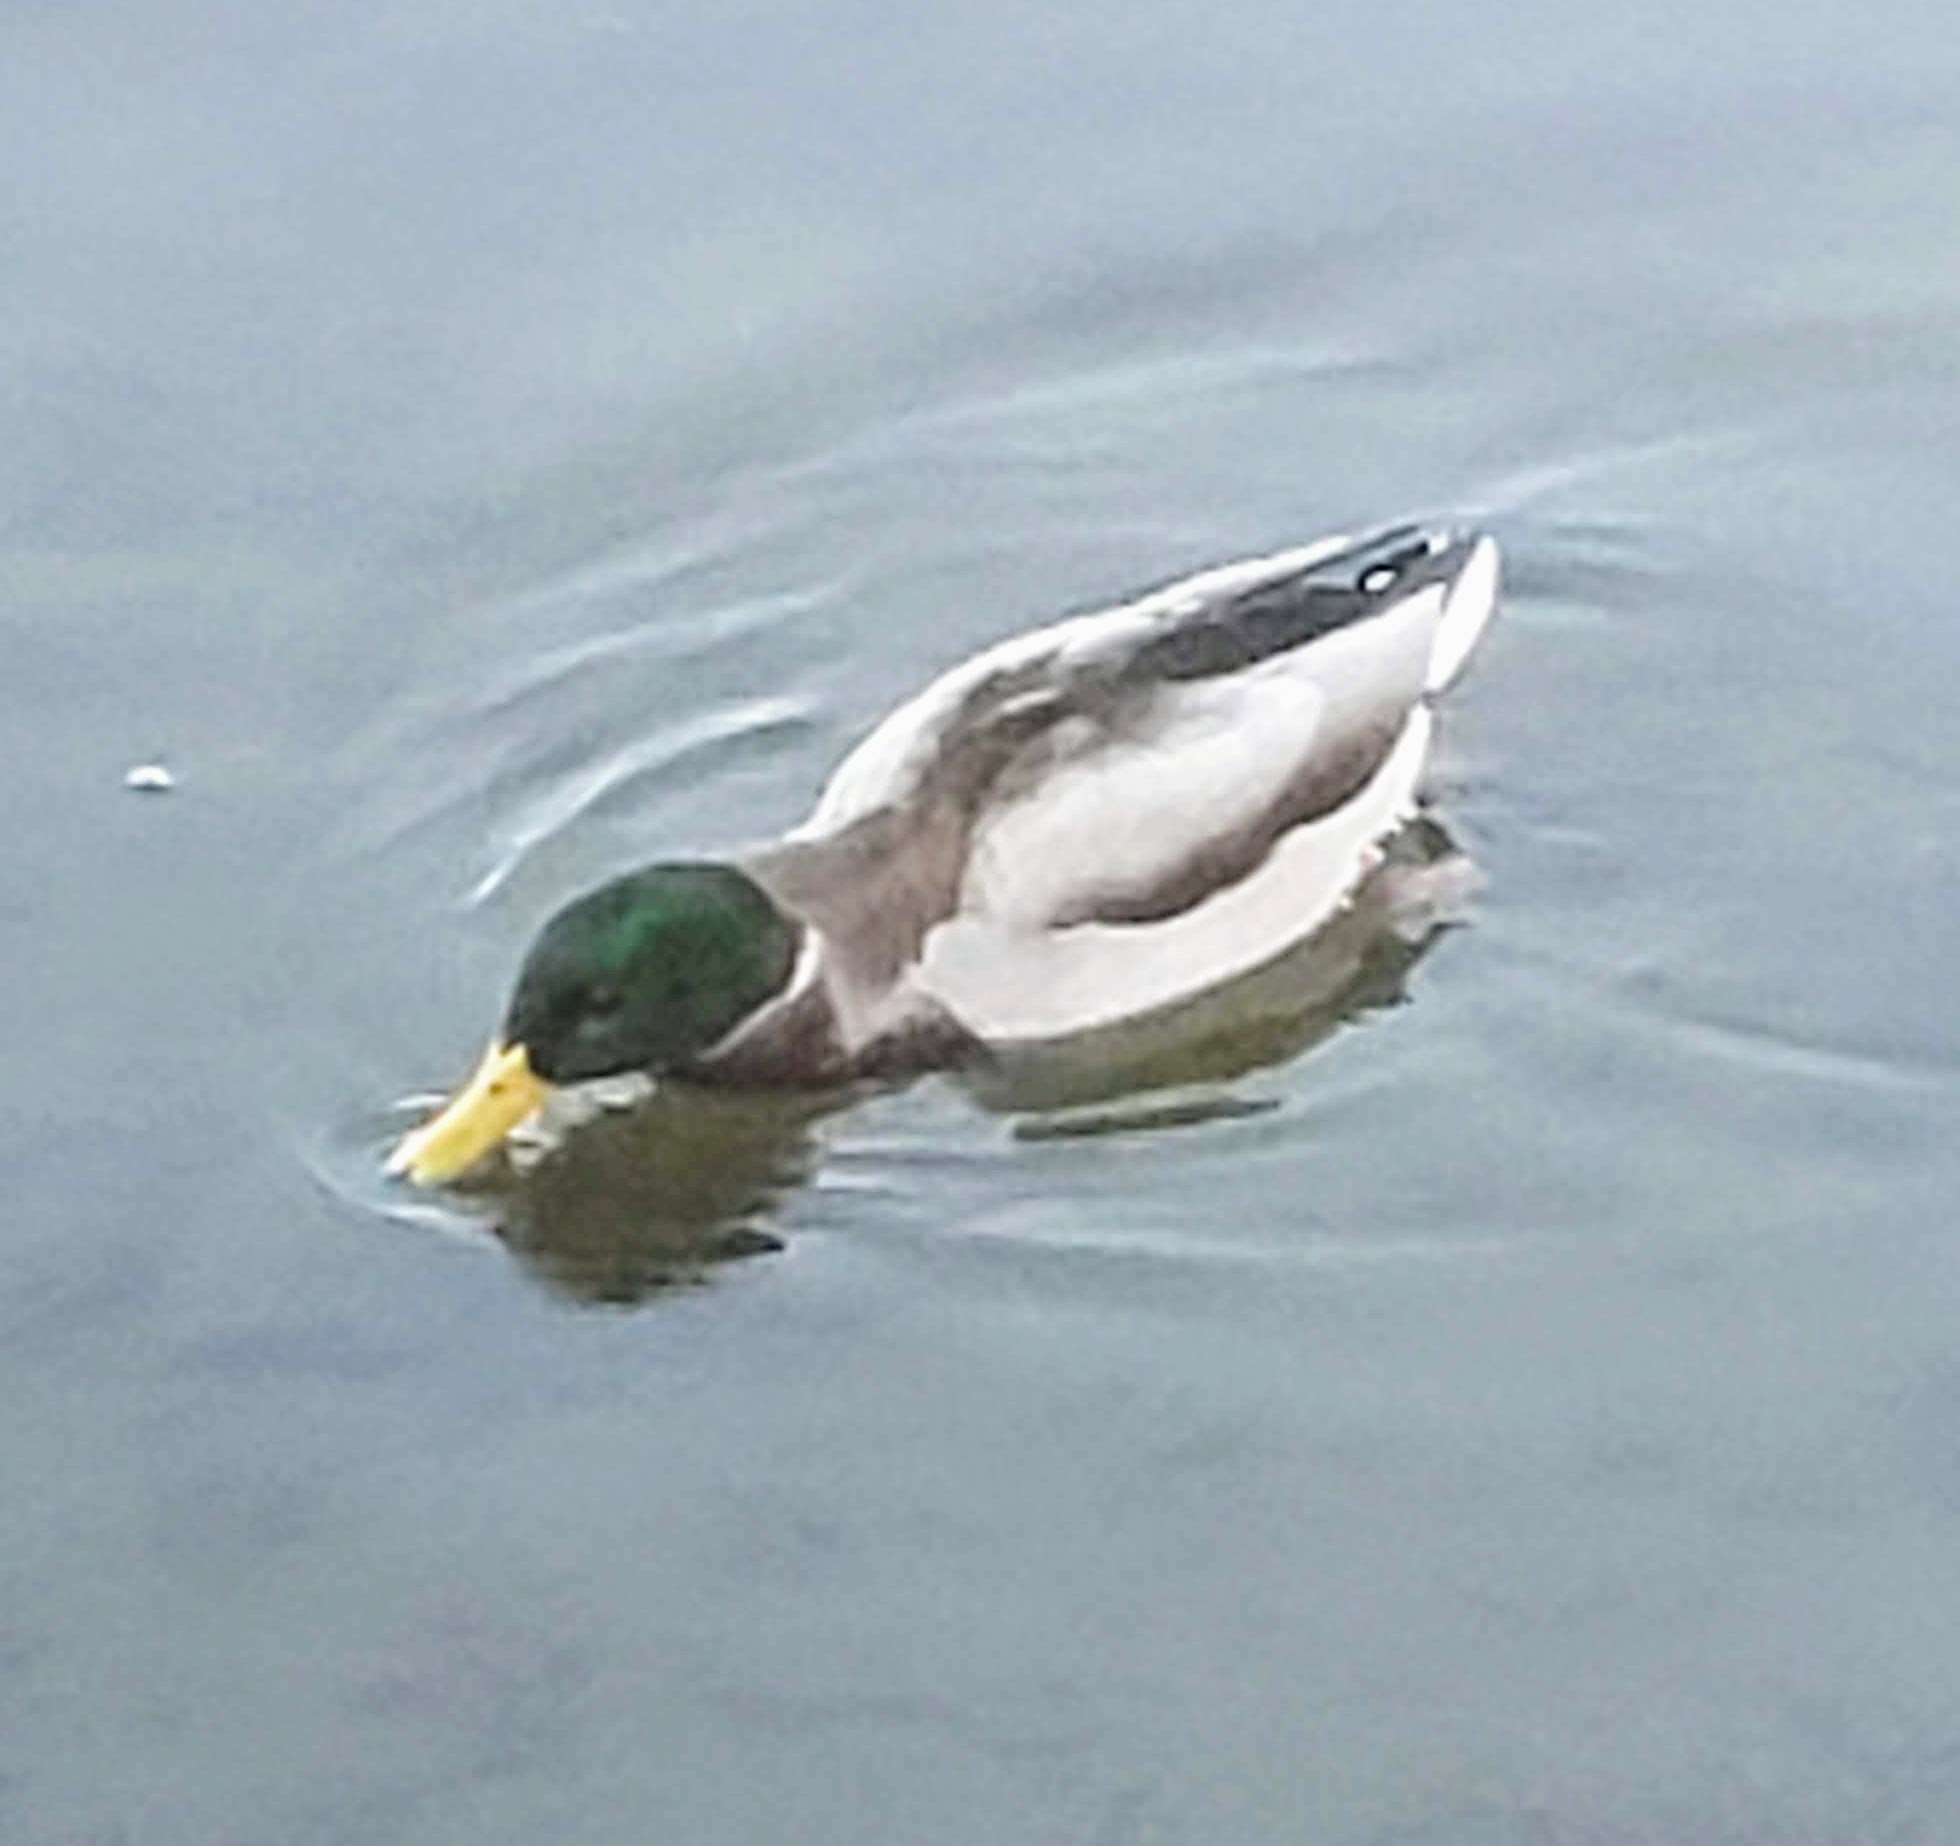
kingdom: Animalia
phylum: Chordata
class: Aves
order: Anseriformes
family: Anatidae
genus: Anas
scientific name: Anas platyrhynchos
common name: Mallard
